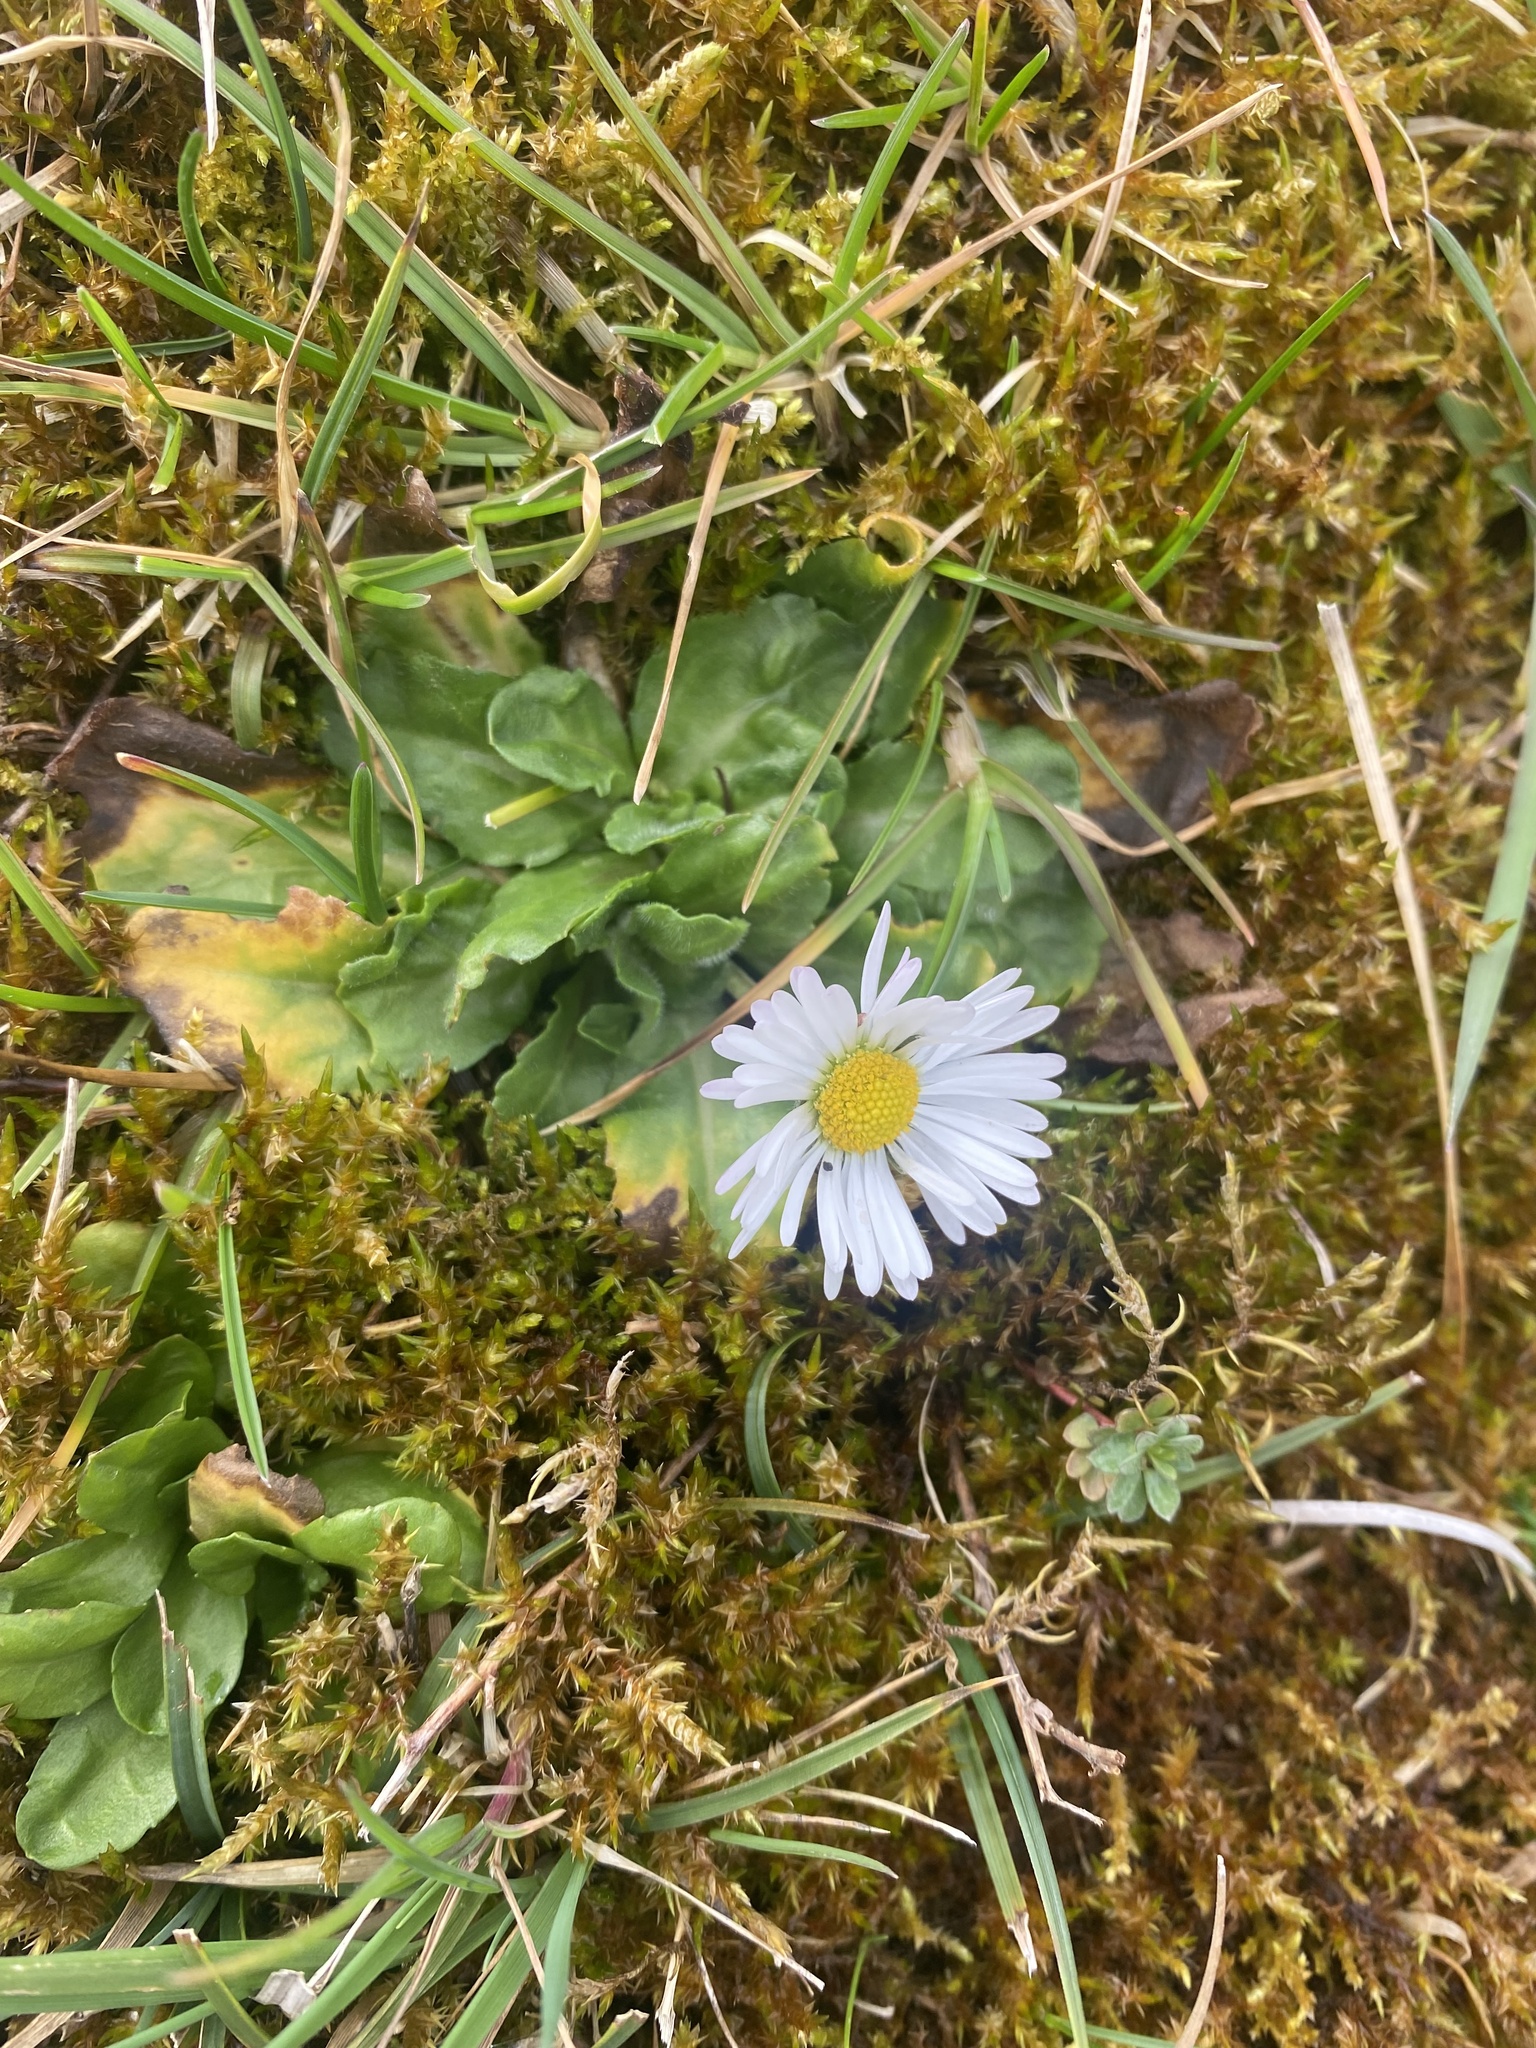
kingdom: Plantae
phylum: Tracheophyta
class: Magnoliopsida
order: Asterales
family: Asteraceae
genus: Bellis
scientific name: Bellis perennis
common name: Lawndaisy
